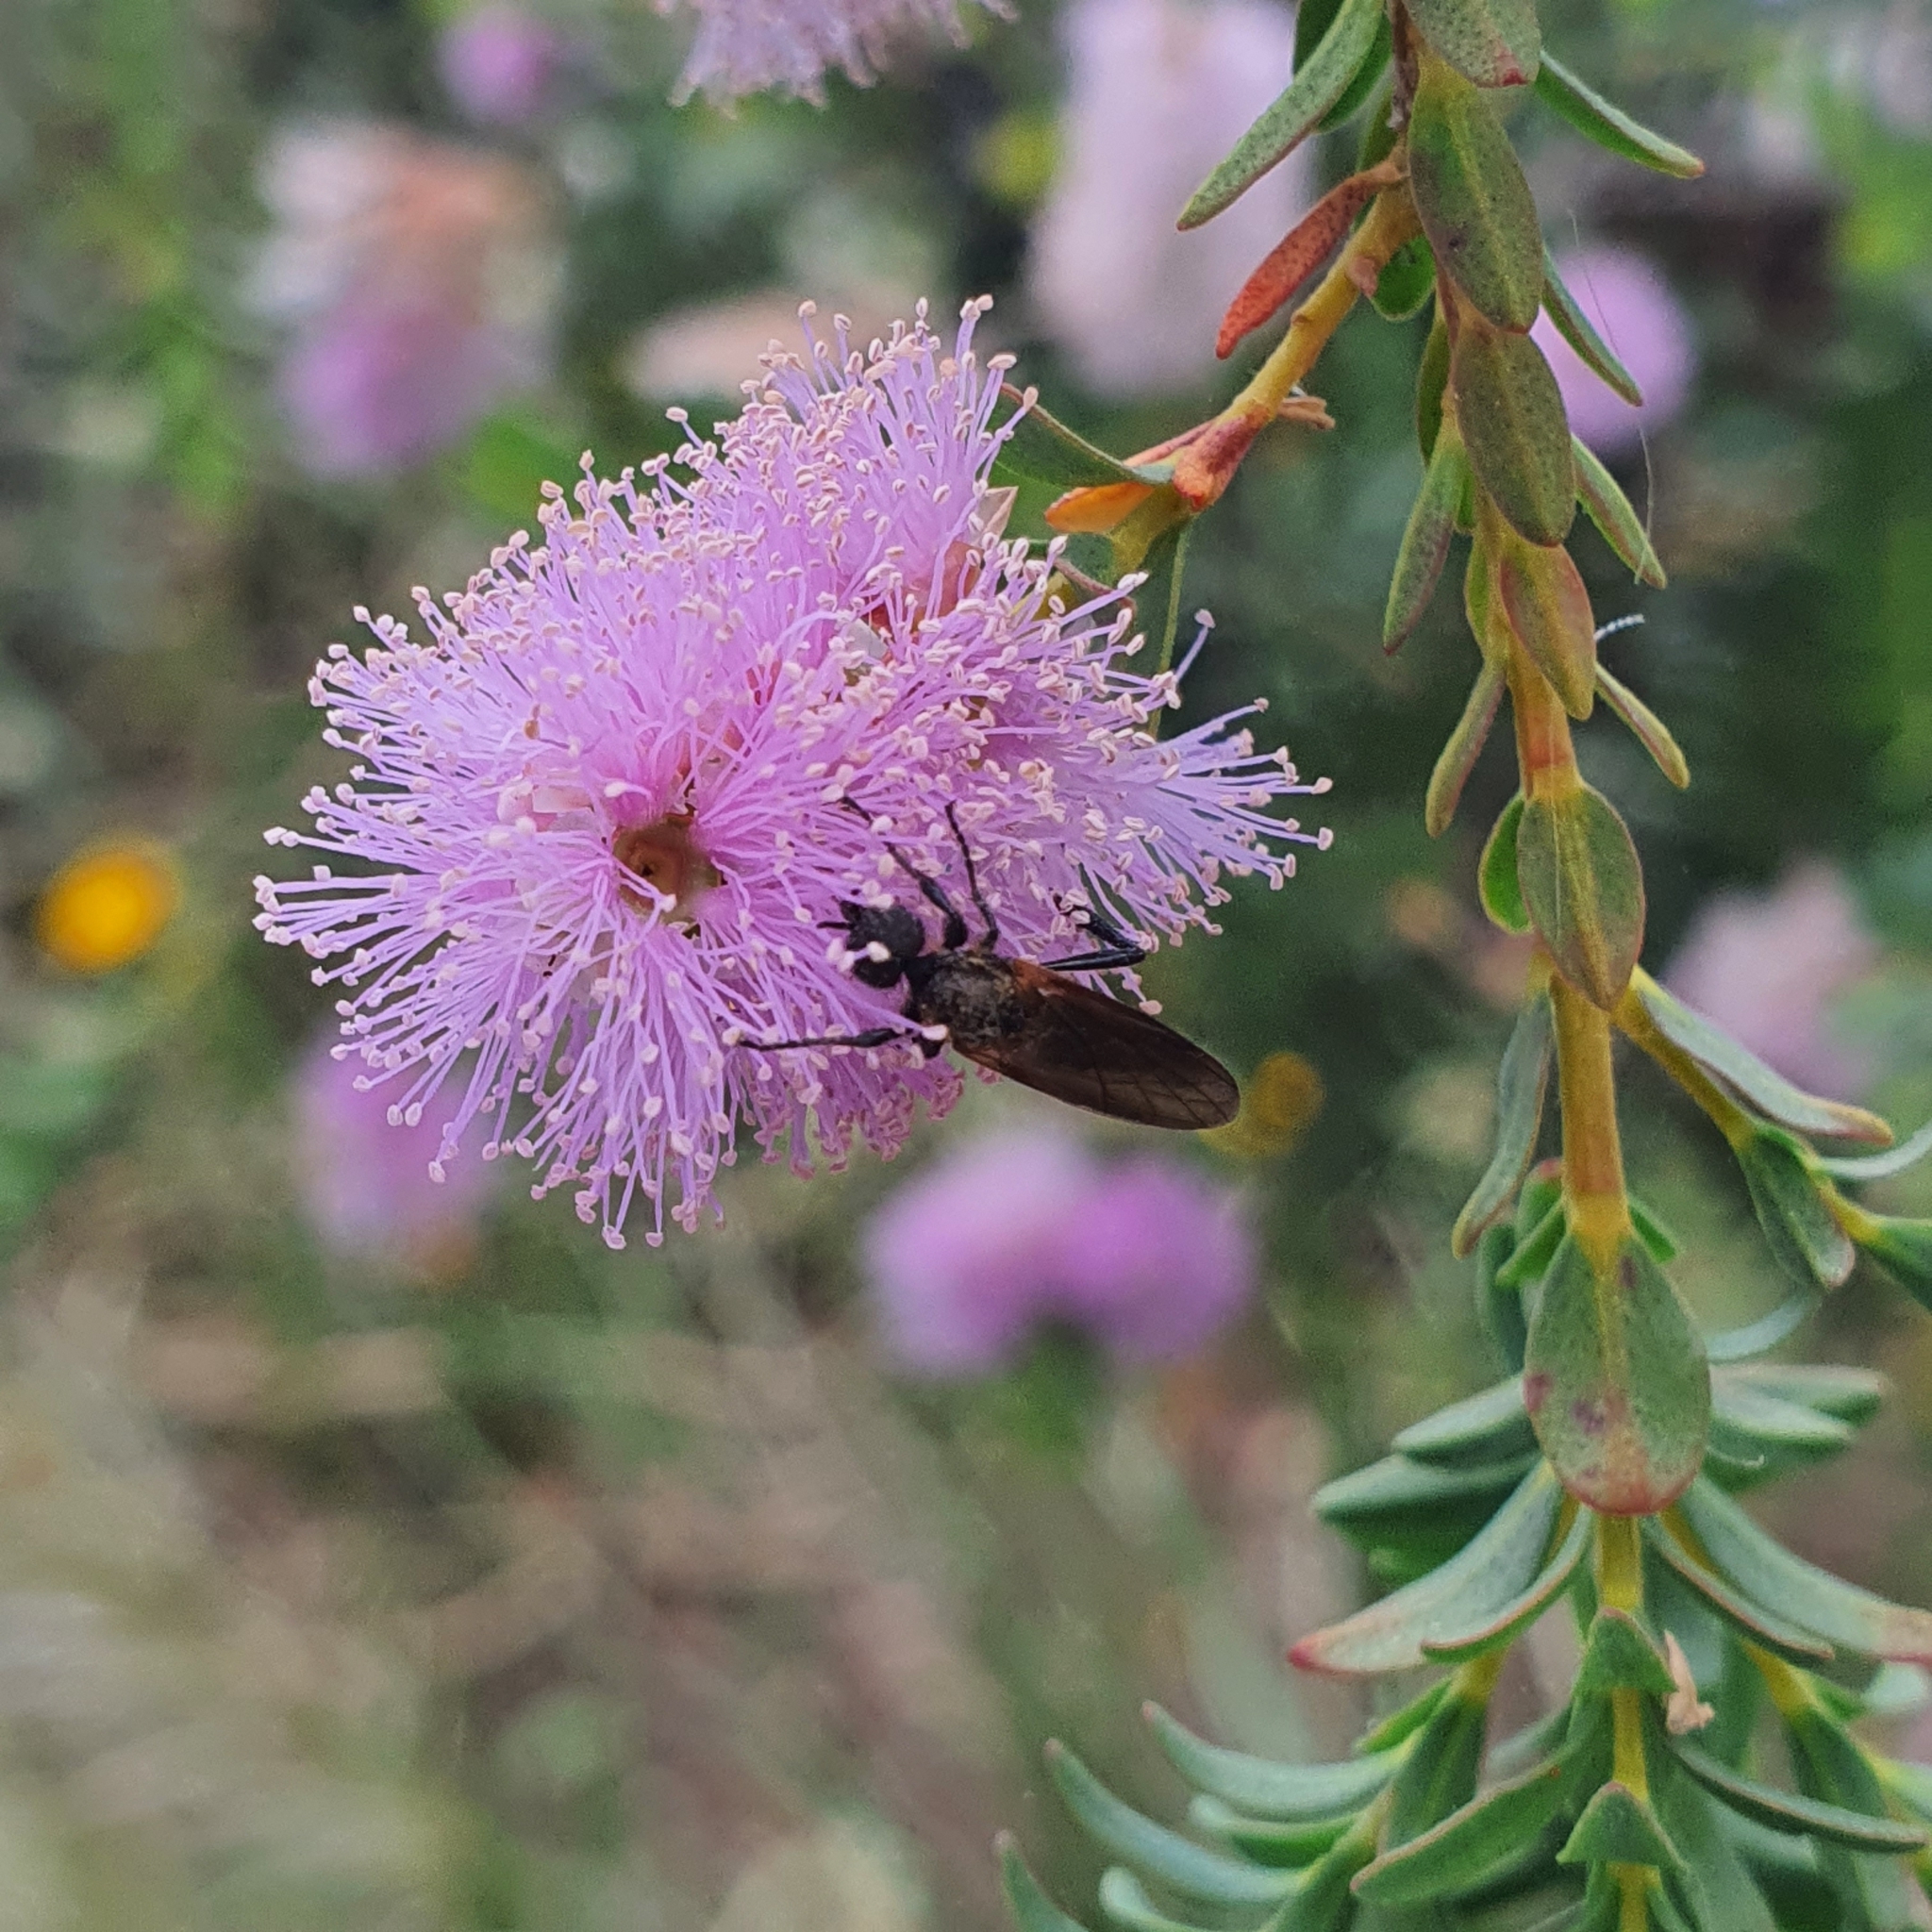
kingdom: Animalia
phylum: Arthropoda
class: Insecta
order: Diptera
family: Bibionidae
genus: Bibio
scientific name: Bibio imitator
